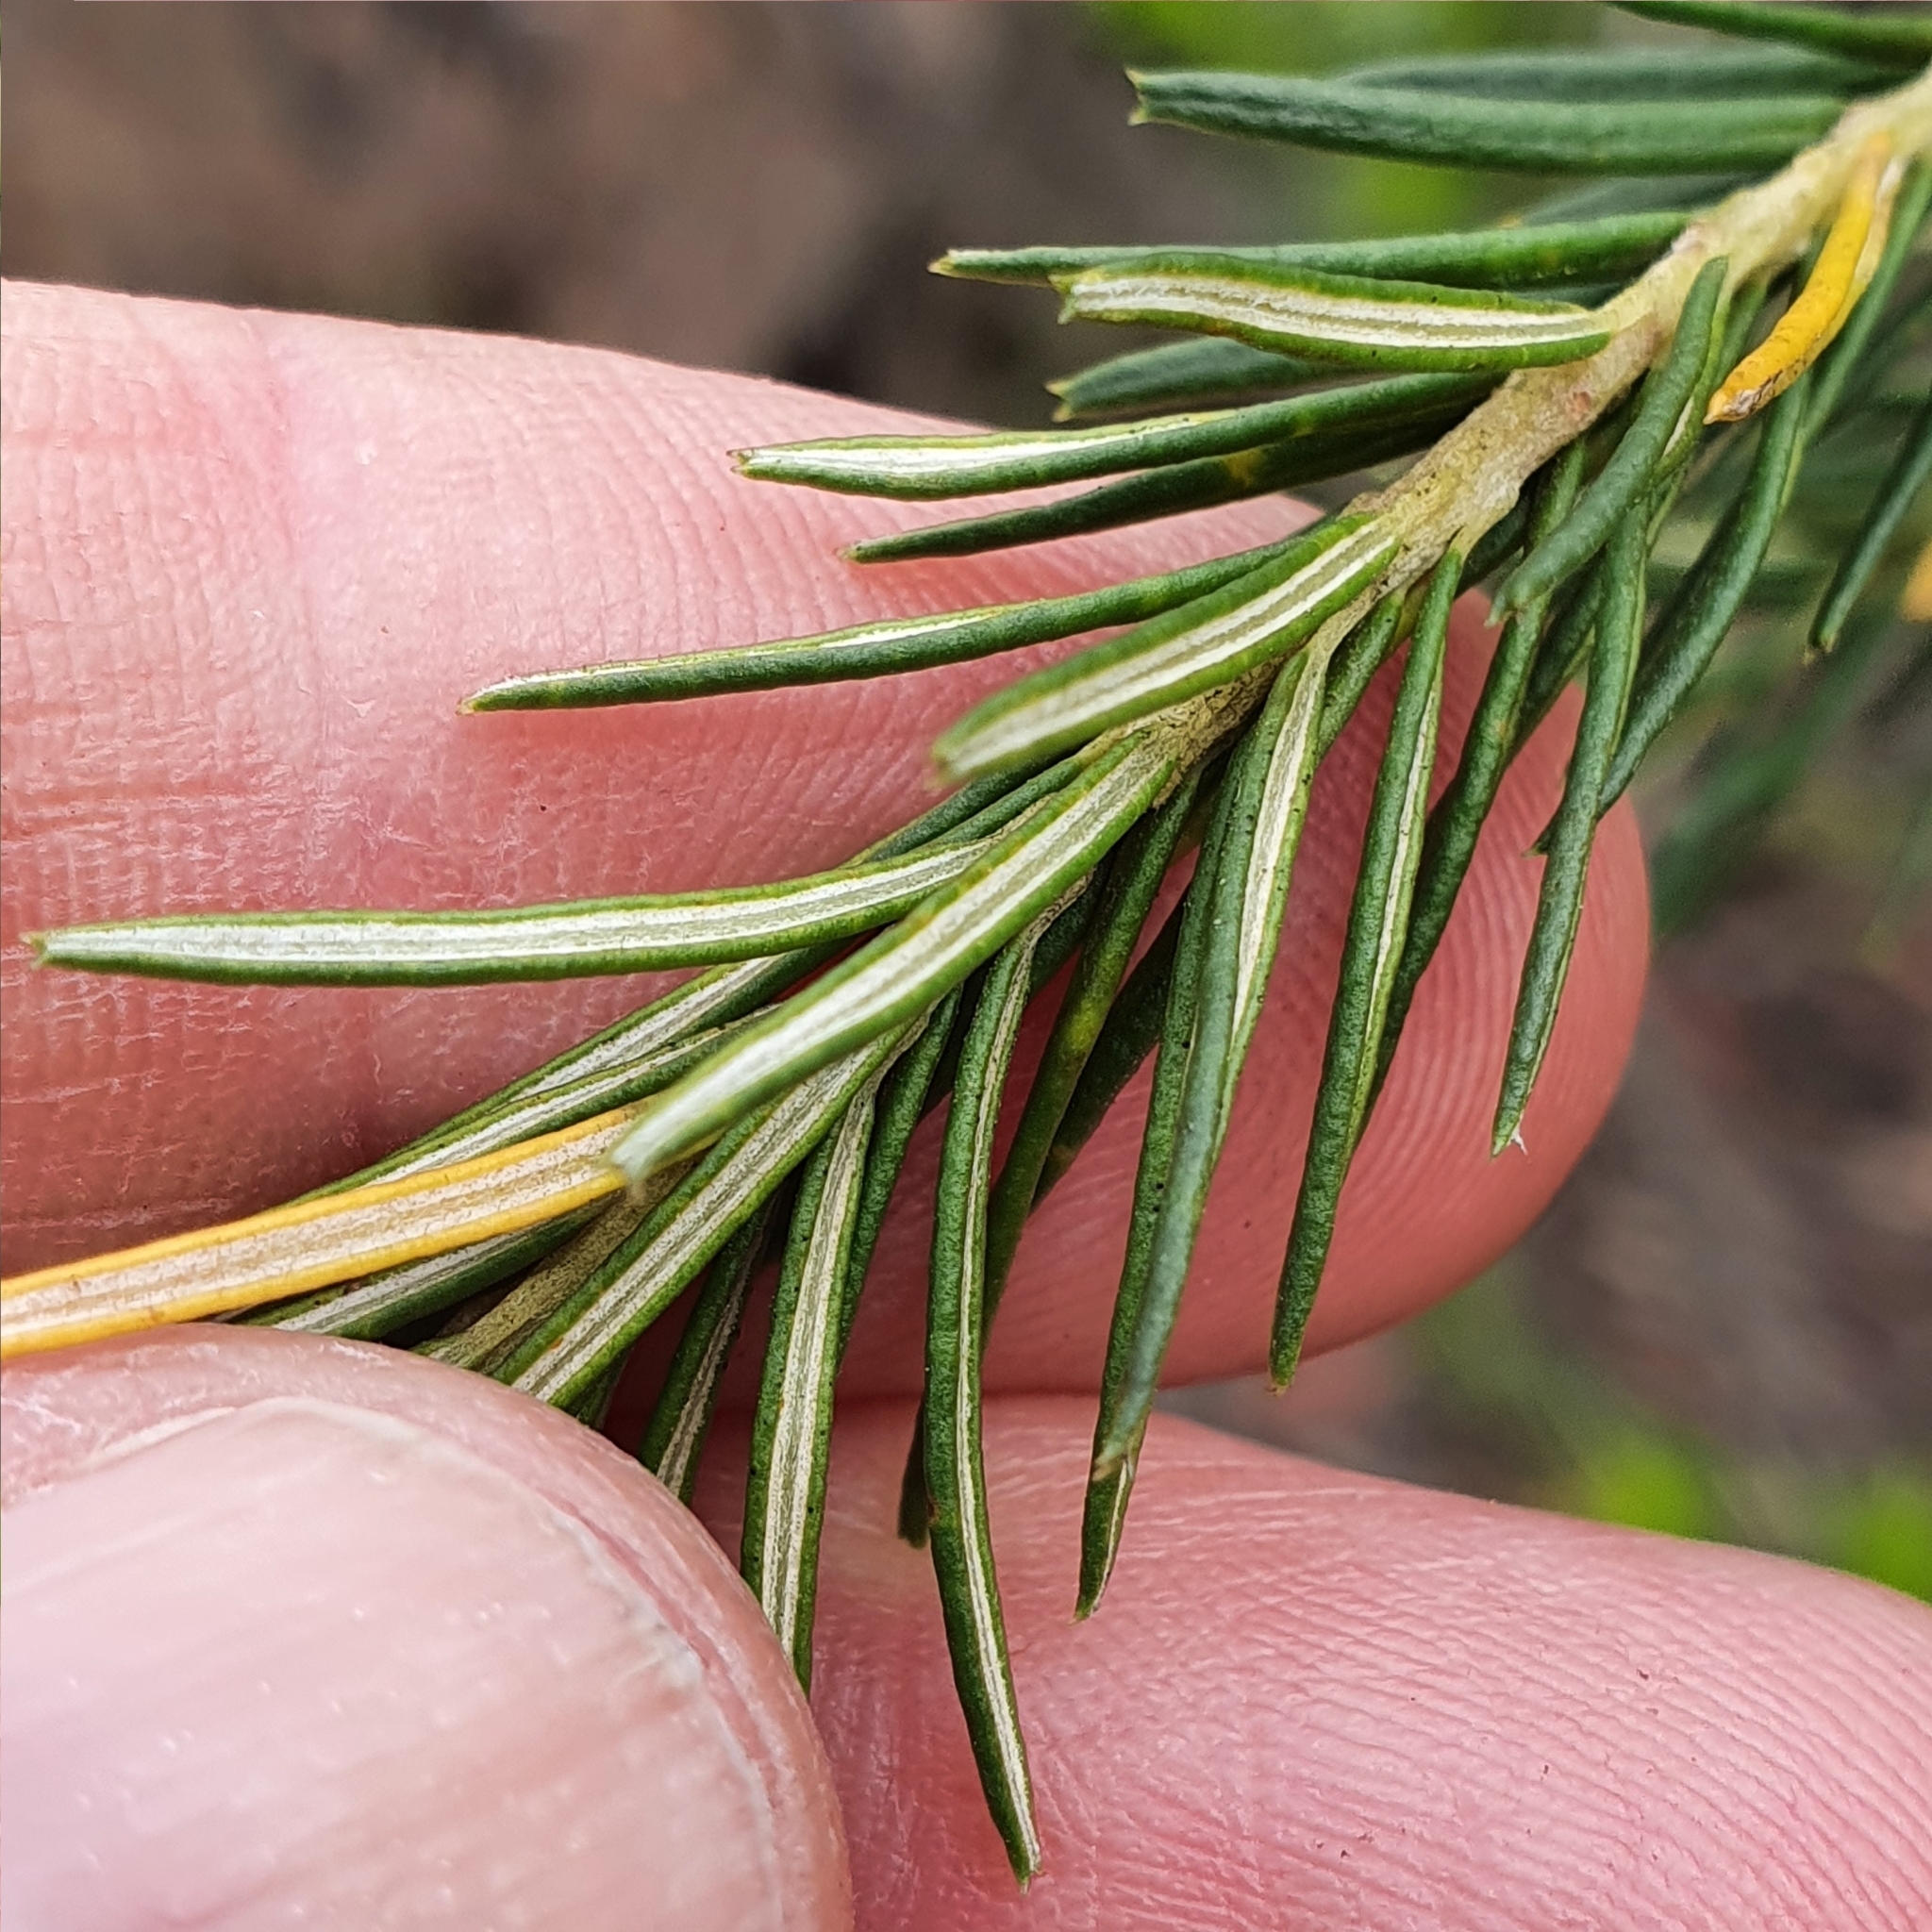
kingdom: Plantae
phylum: Tracheophyta
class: Magnoliopsida
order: Proteales
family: Proteaceae
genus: Banksia
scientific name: Banksia ericifolia
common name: Heath-leaf banksia
